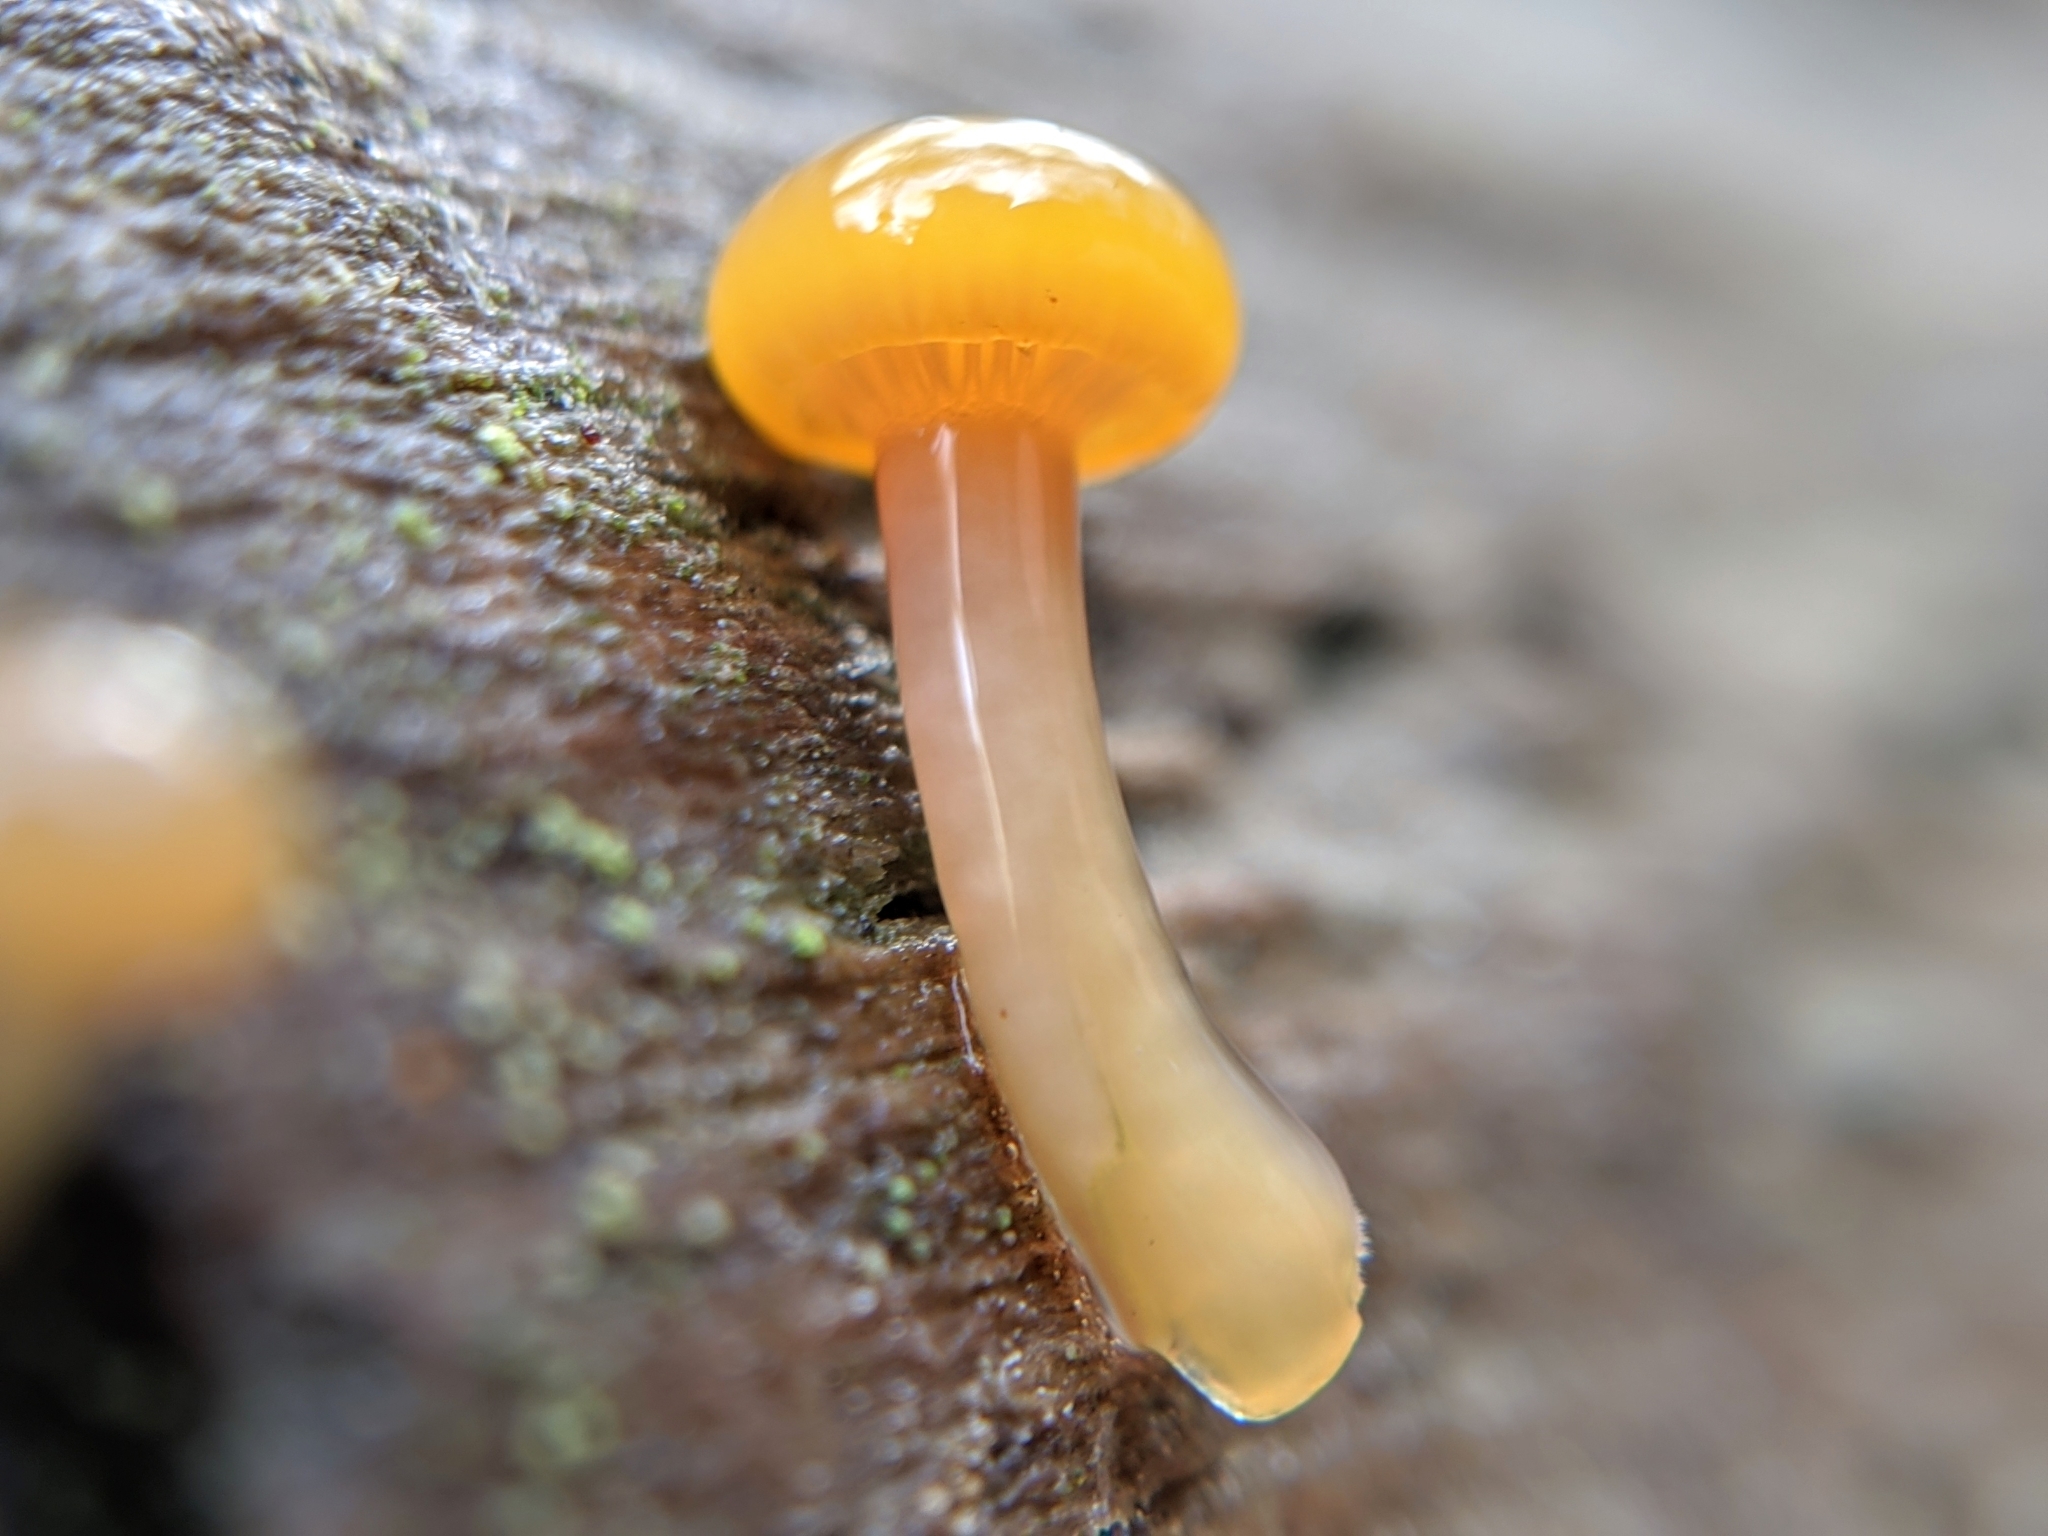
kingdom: Fungi
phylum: Basidiomycota
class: Agaricomycetes
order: Agaricales
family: Hygrophoraceae
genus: Chromosera
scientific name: Chromosera cyanophylla
